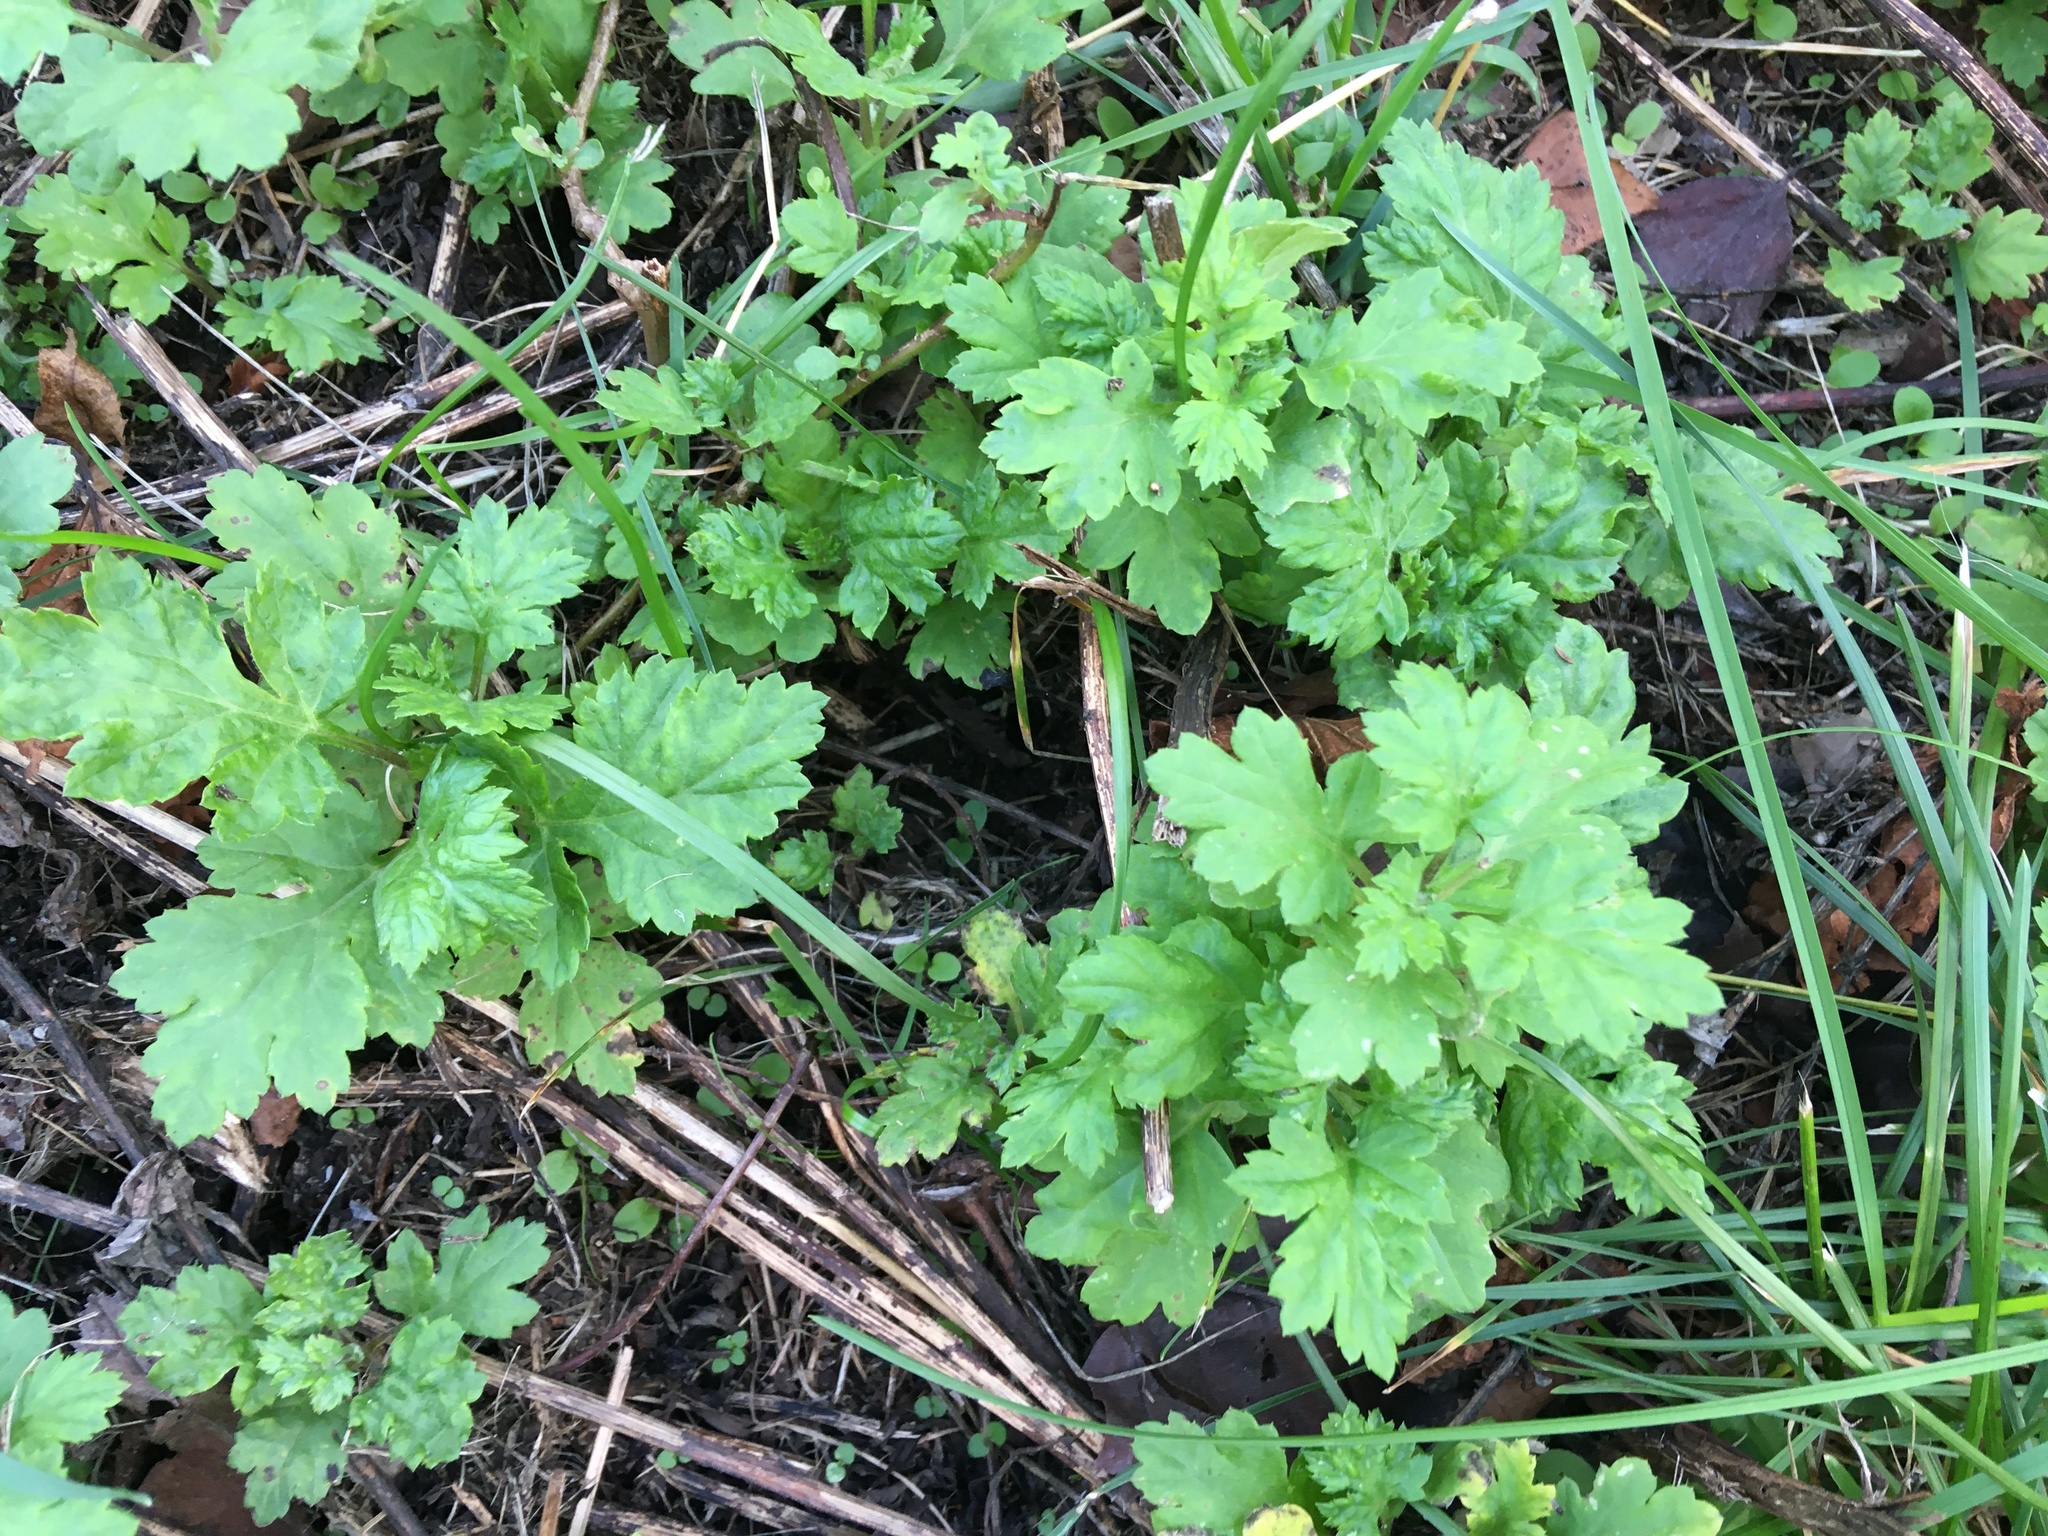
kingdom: Plantae
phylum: Tracheophyta
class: Magnoliopsida
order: Asterales
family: Asteraceae
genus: Artemisia
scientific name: Artemisia vulgaris
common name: Mugwort
